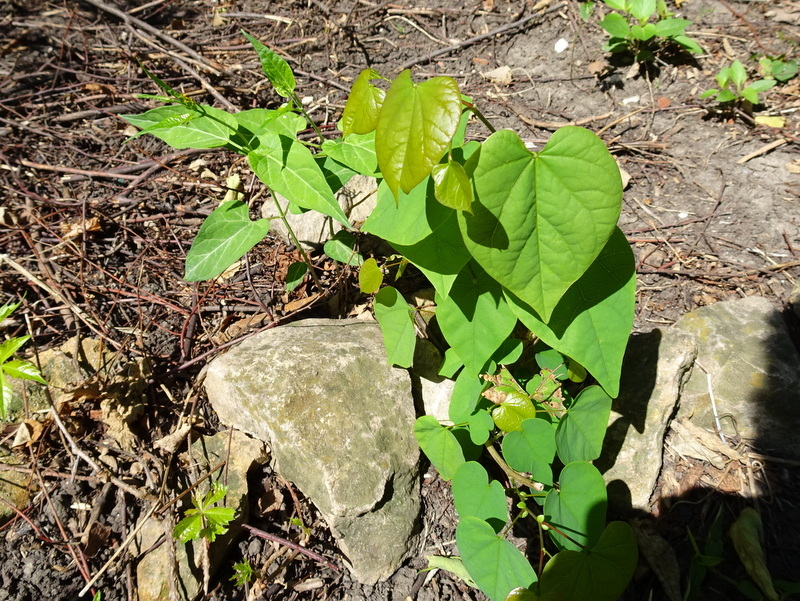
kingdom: Plantae
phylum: Tracheophyta
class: Magnoliopsida
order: Fabales
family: Fabaceae
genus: Cercis
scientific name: Cercis canadensis
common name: Eastern redbud
